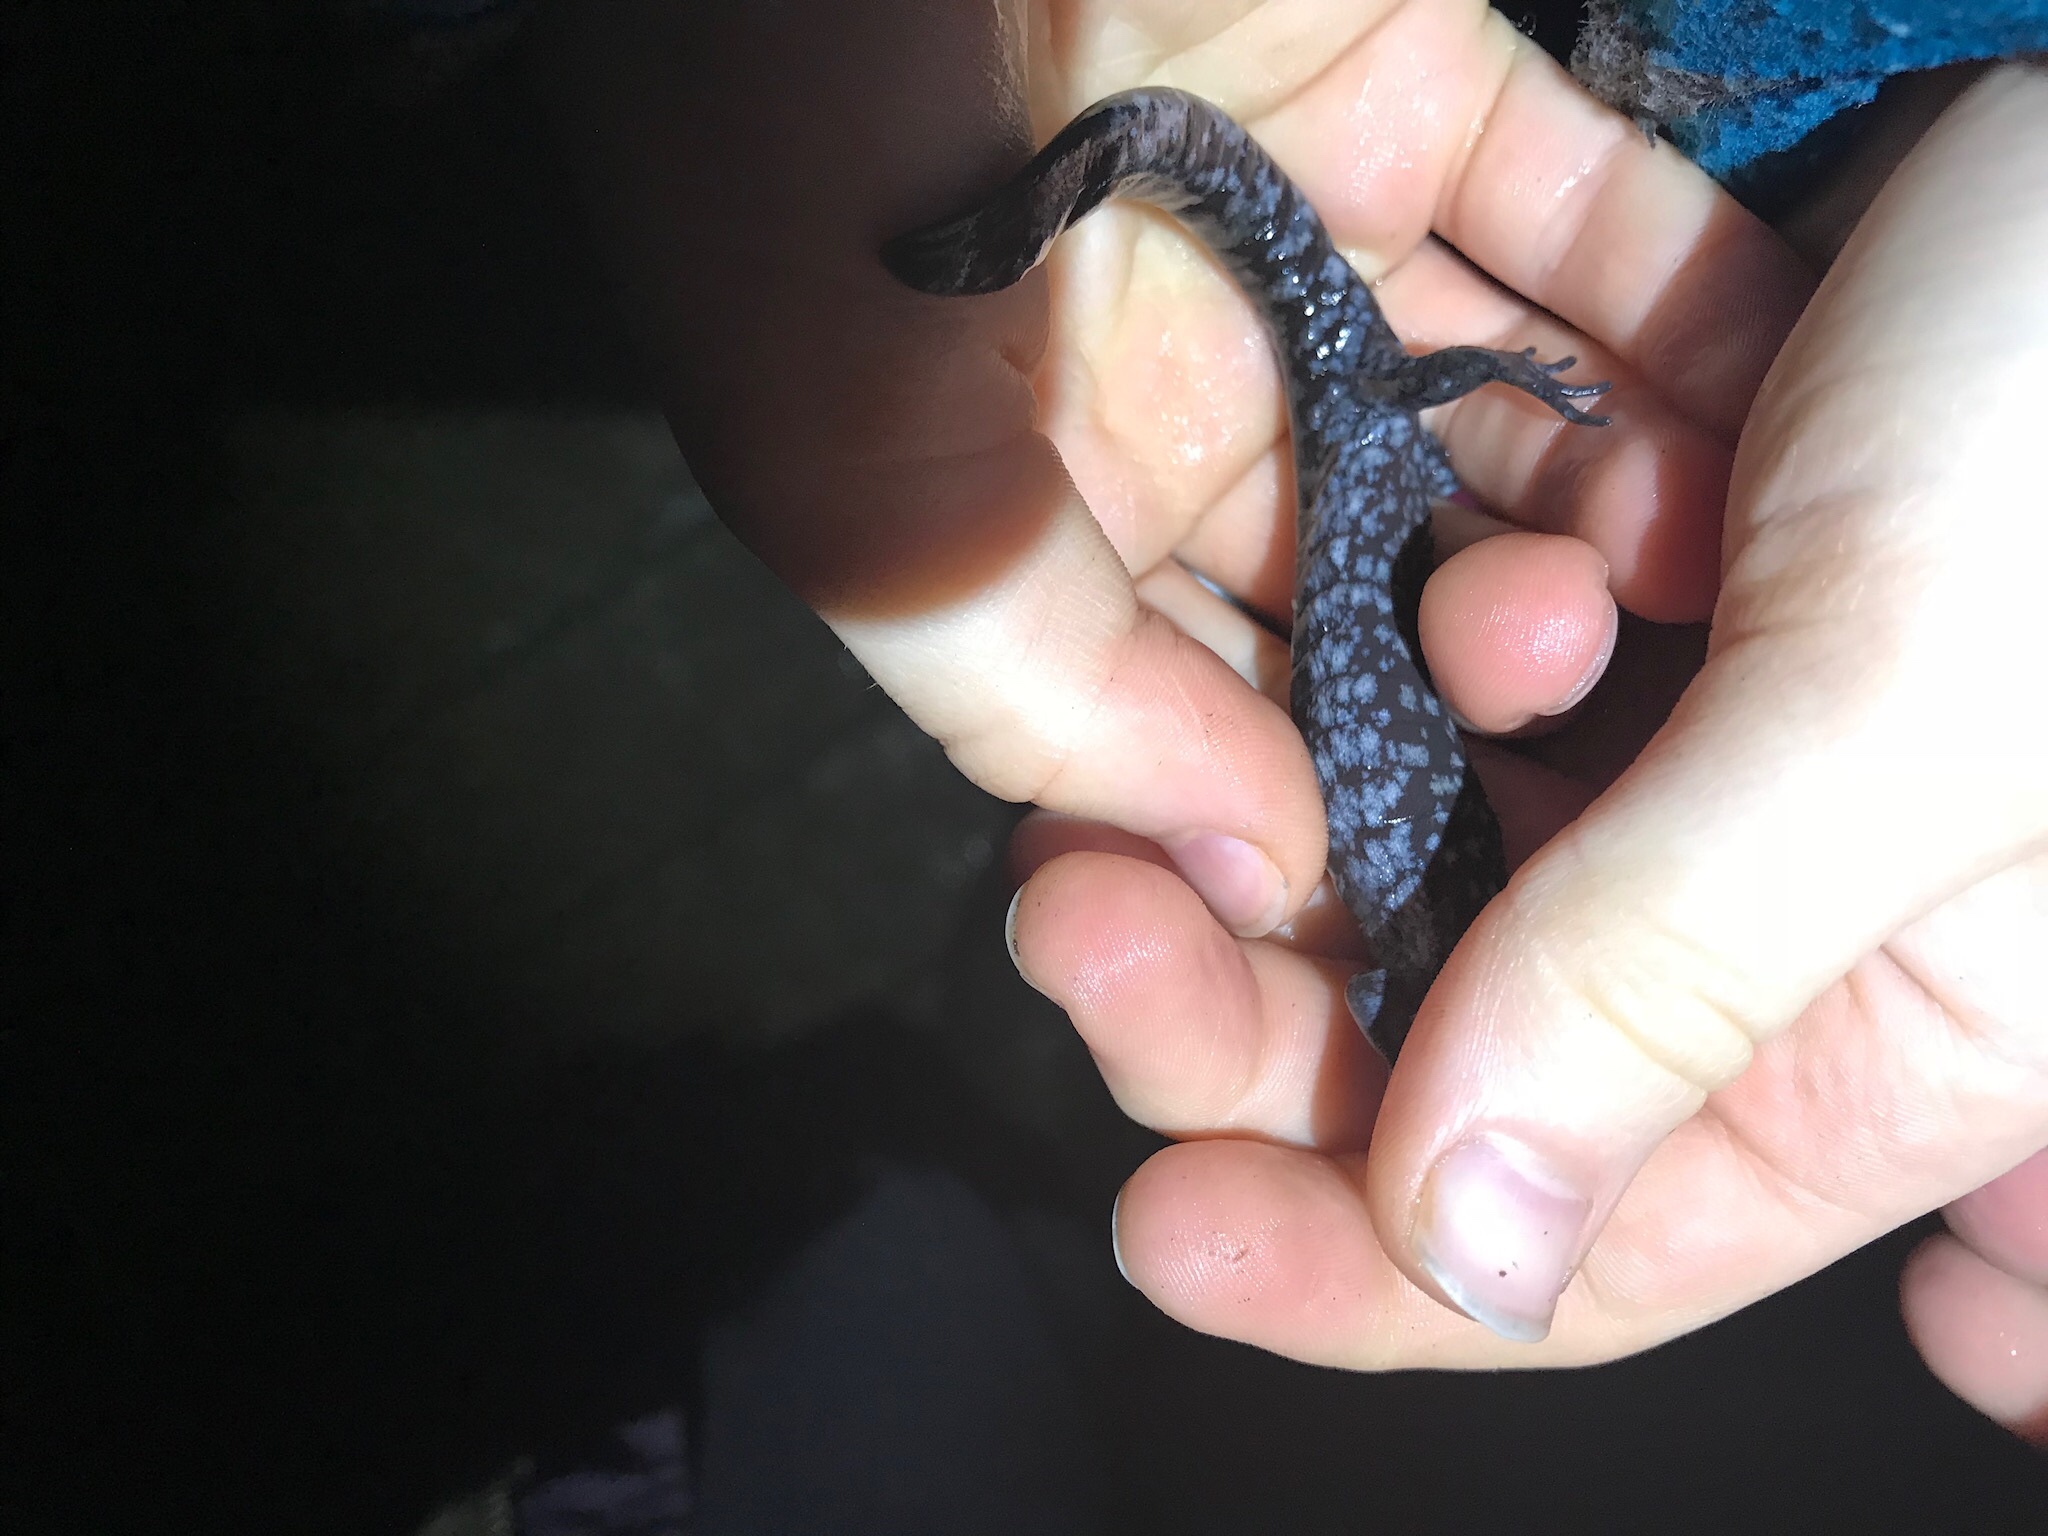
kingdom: Animalia
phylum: Chordata
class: Amphibia
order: Caudata
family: Ambystomatidae
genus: Ambystoma
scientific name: Ambystoma unisexual
